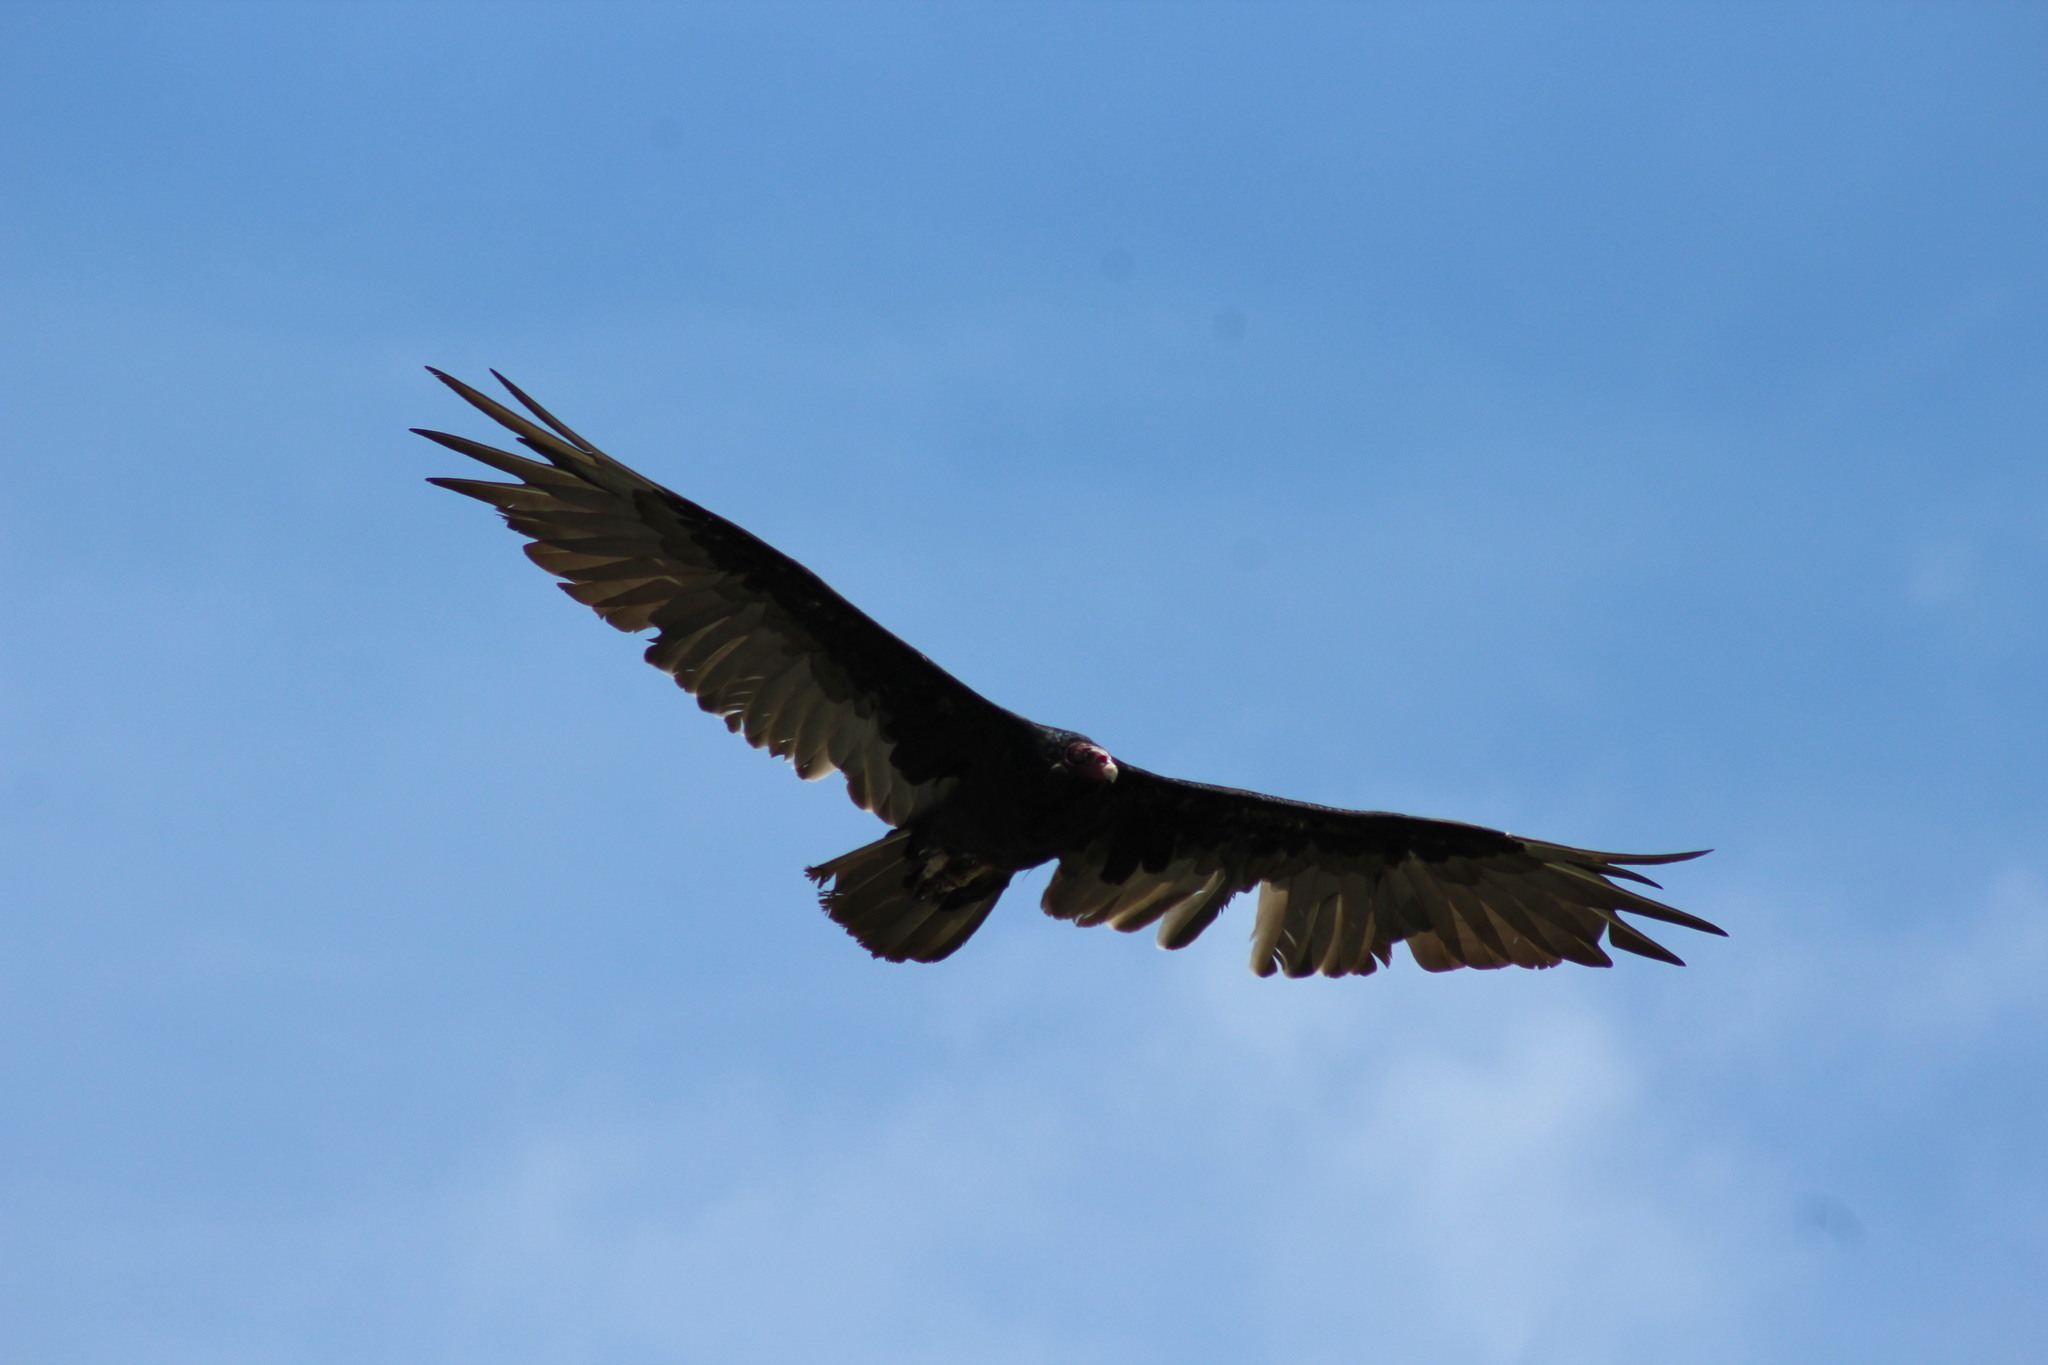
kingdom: Animalia
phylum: Chordata
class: Aves
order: Accipitriformes
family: Cathartidae
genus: Cathartes
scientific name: Cathartes aura
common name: Turkey vulture
